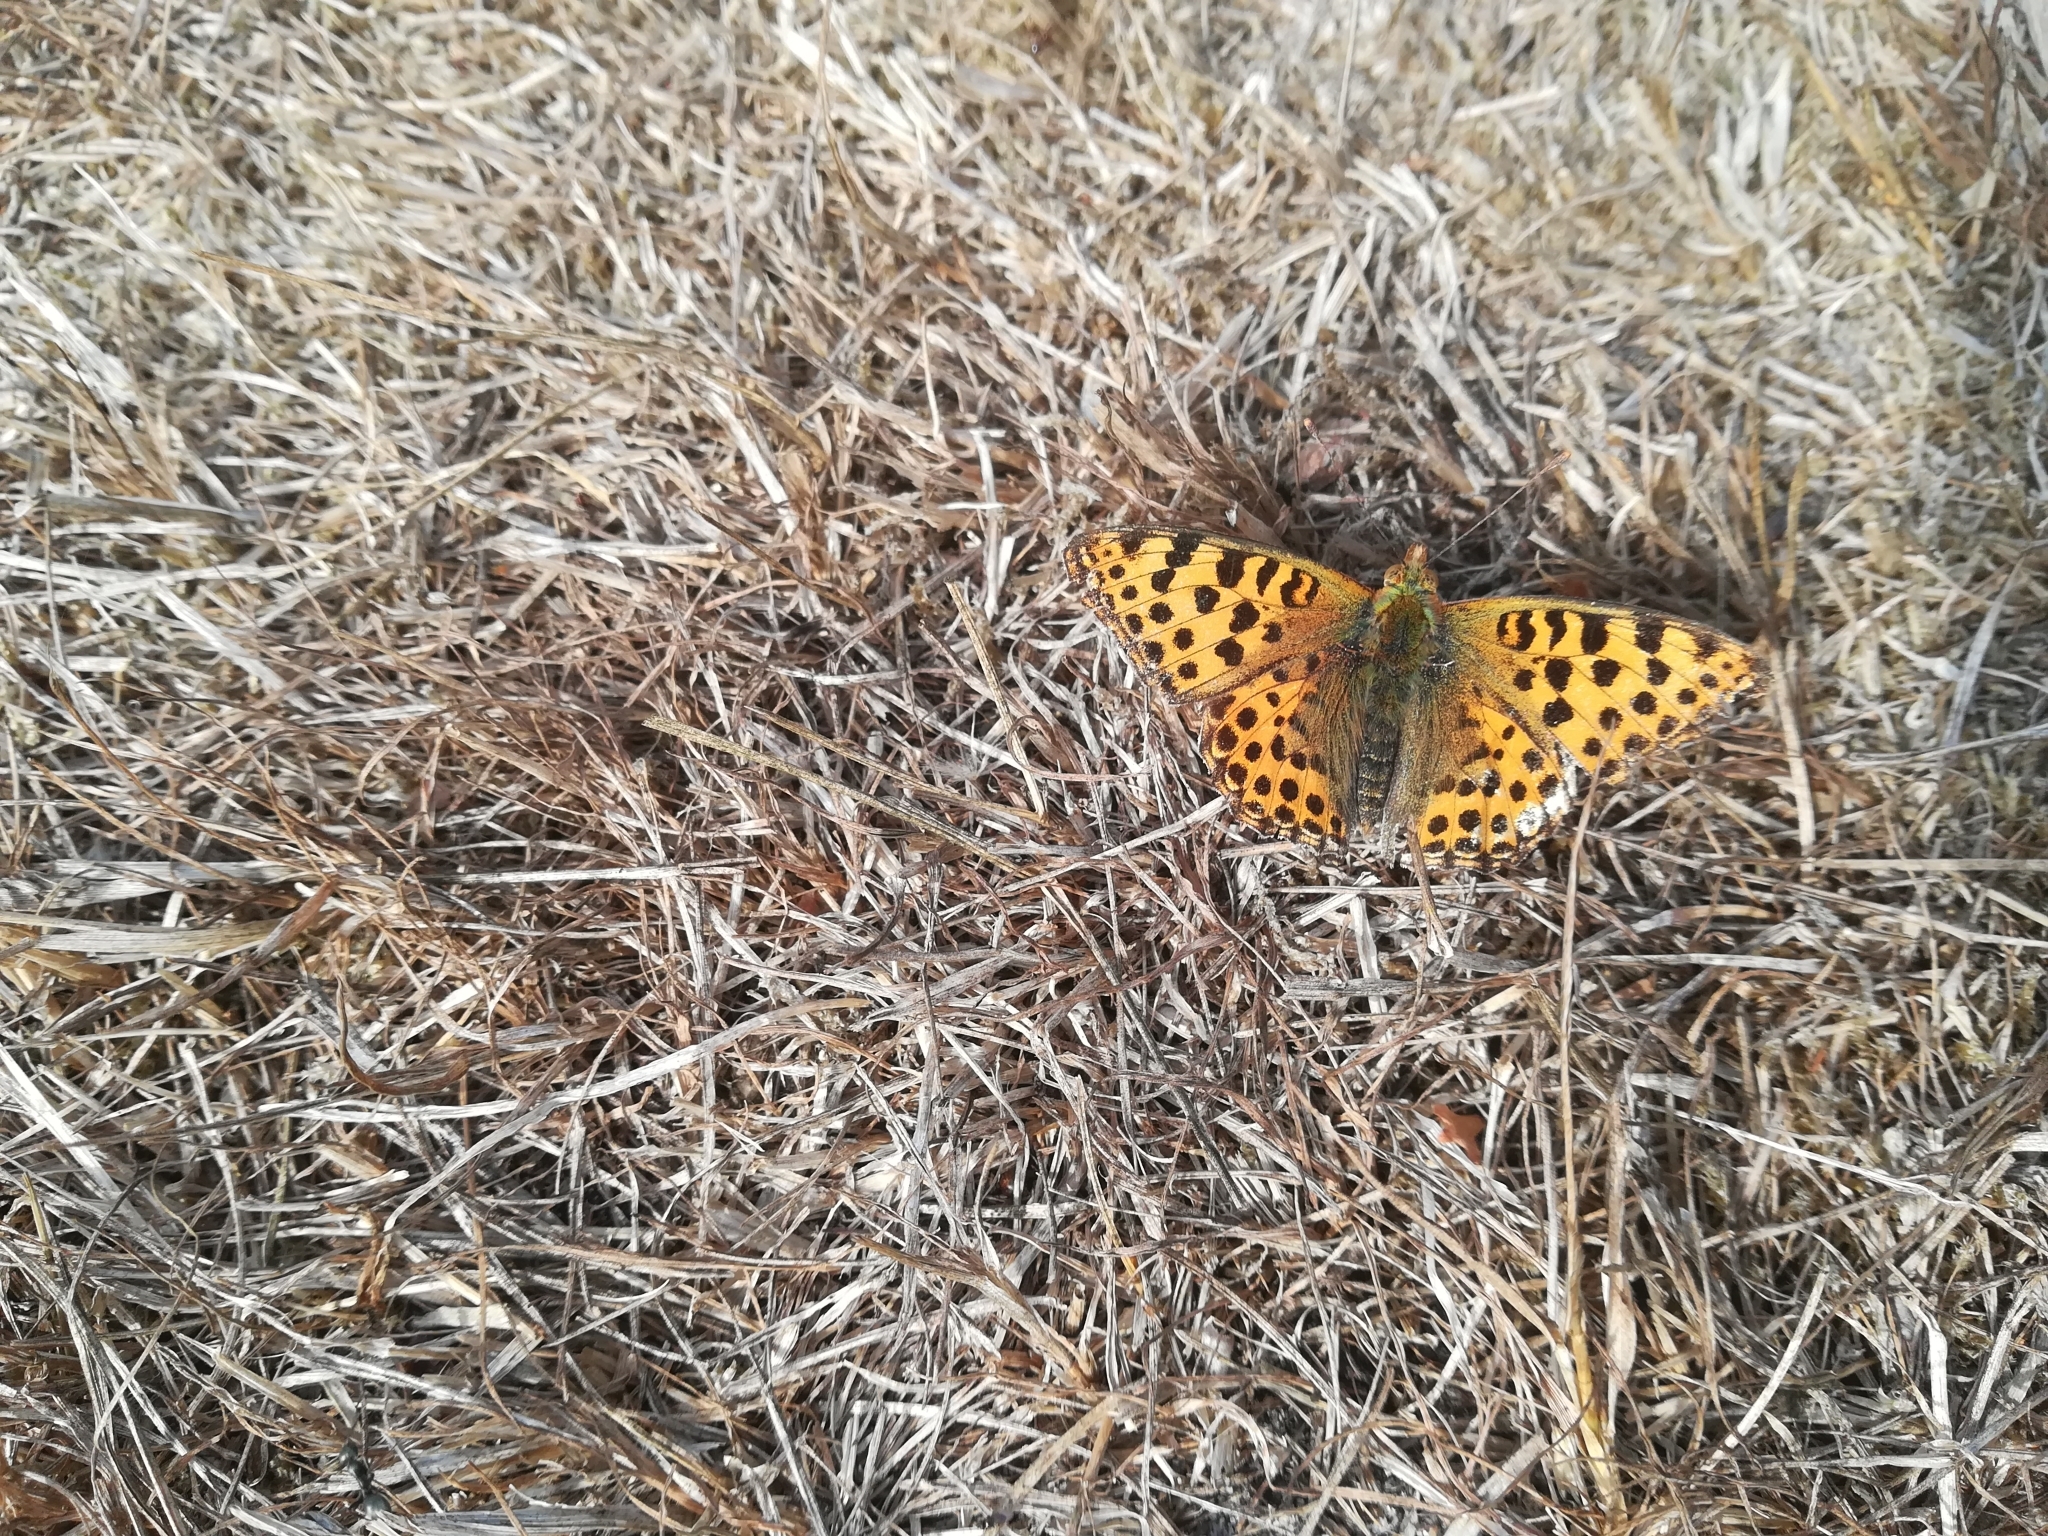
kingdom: Animalia
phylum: Arthropoda
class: Insecta
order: Lepidoptera
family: Nymphalidae
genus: Issoria
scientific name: Issoria lathonia
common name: Queen of spain fritillary
